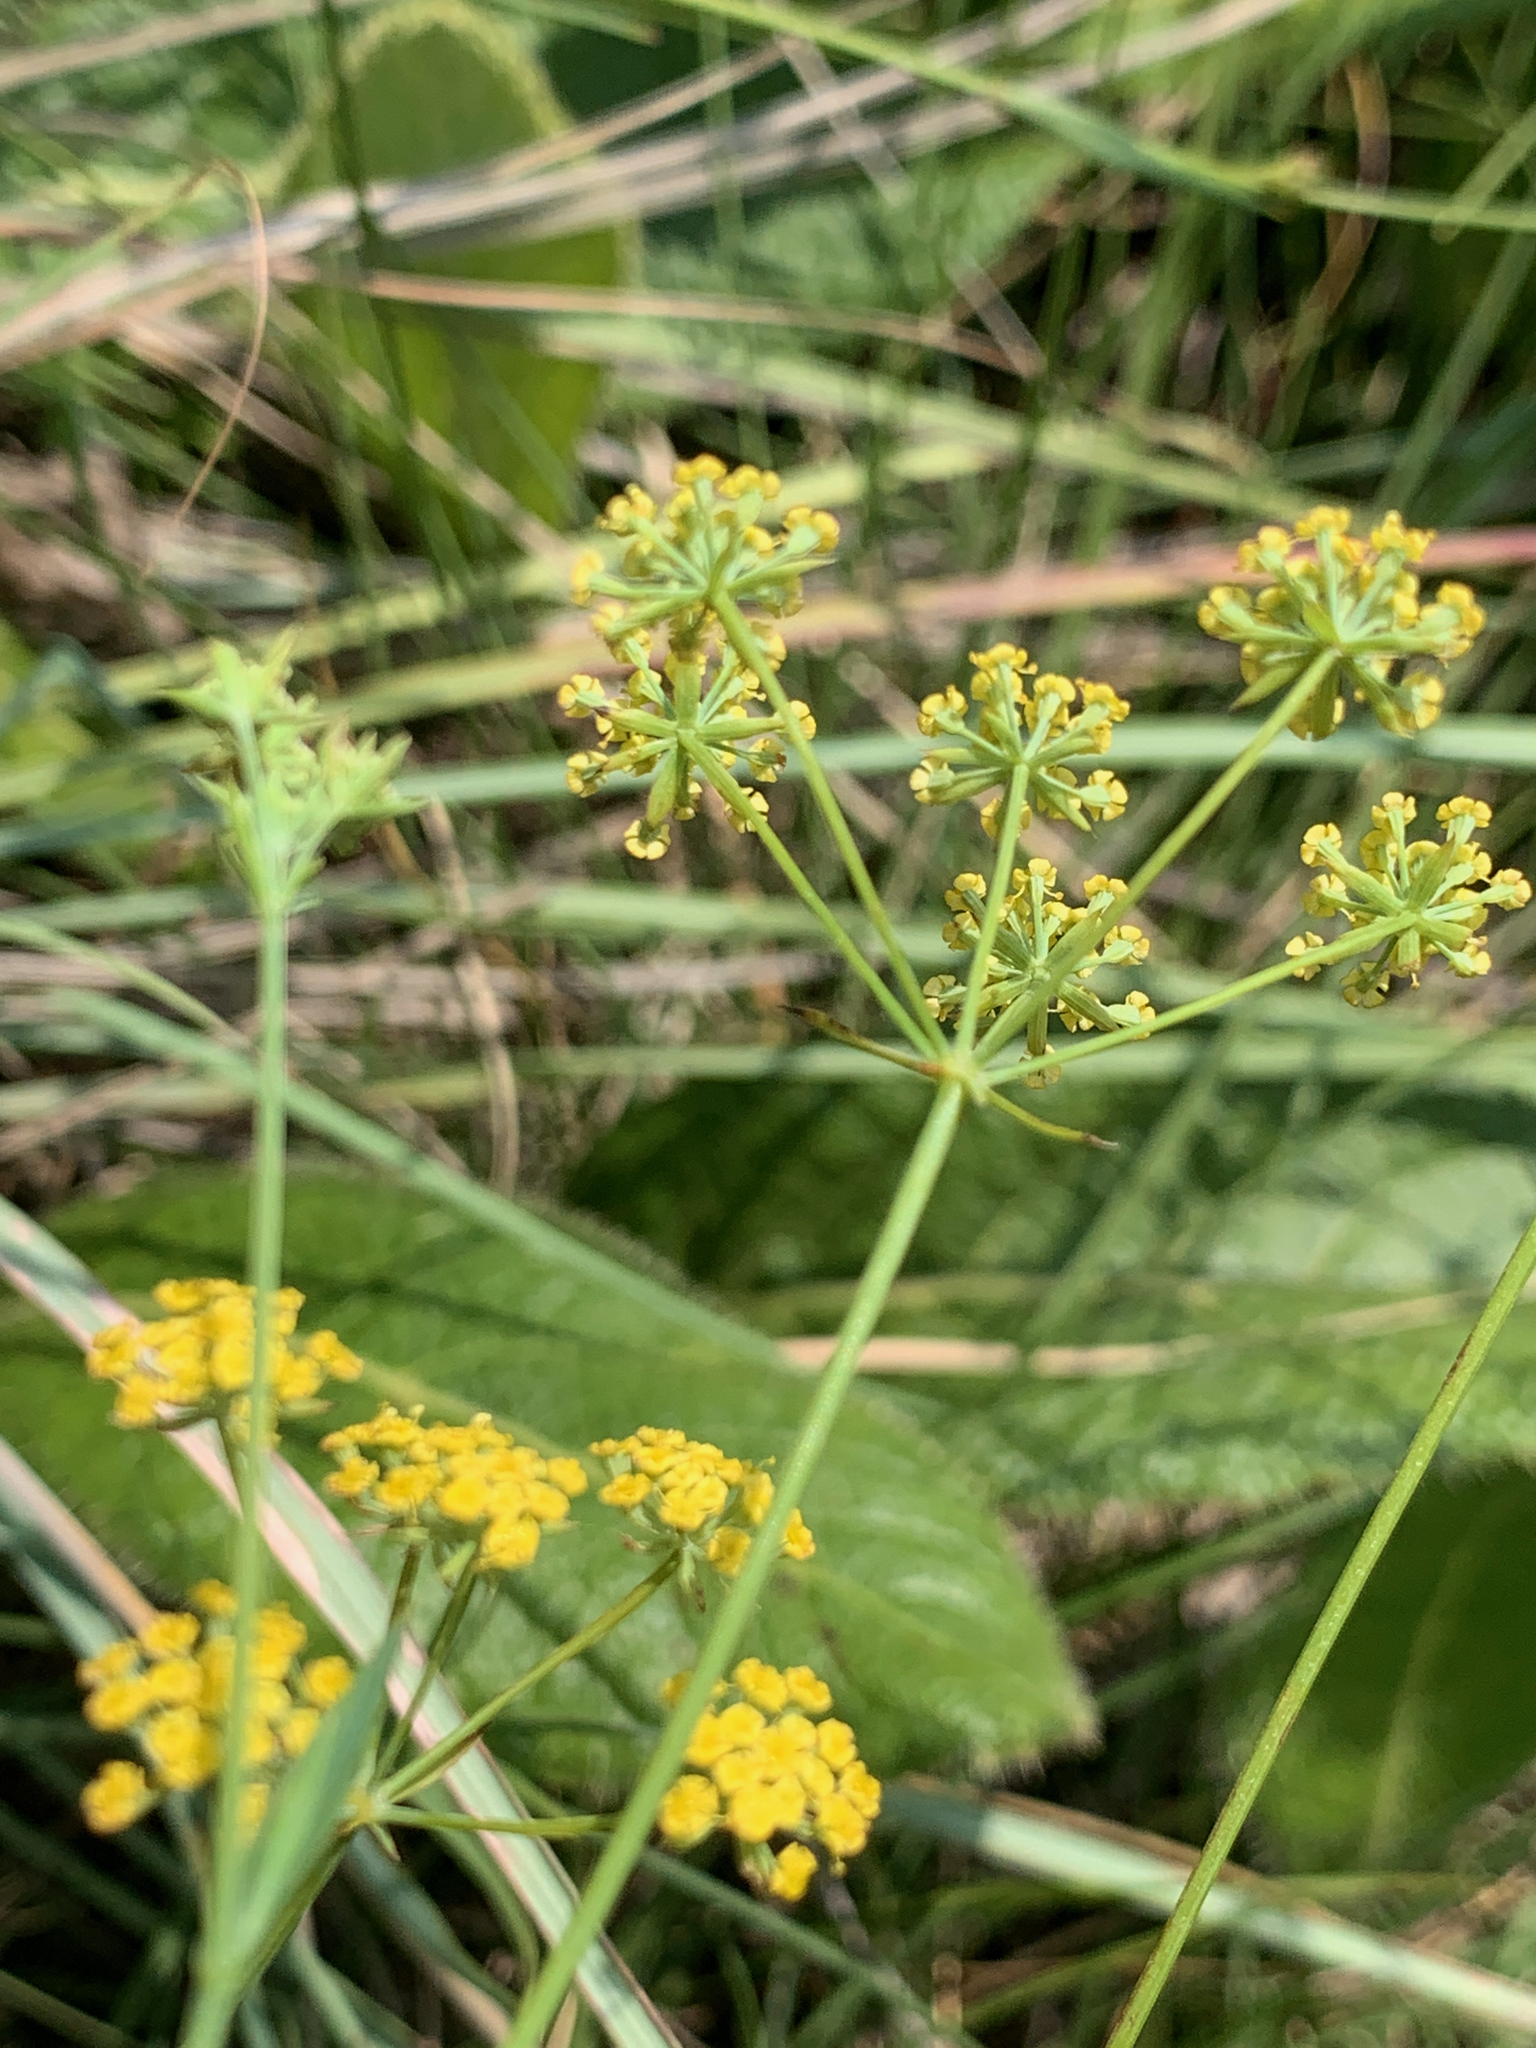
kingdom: Plantae
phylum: Tracheophyta
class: Magnoliopsida
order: Apiales
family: Apiaceae
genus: Afrosciadium
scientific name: Afrosciadium magalismontanum
